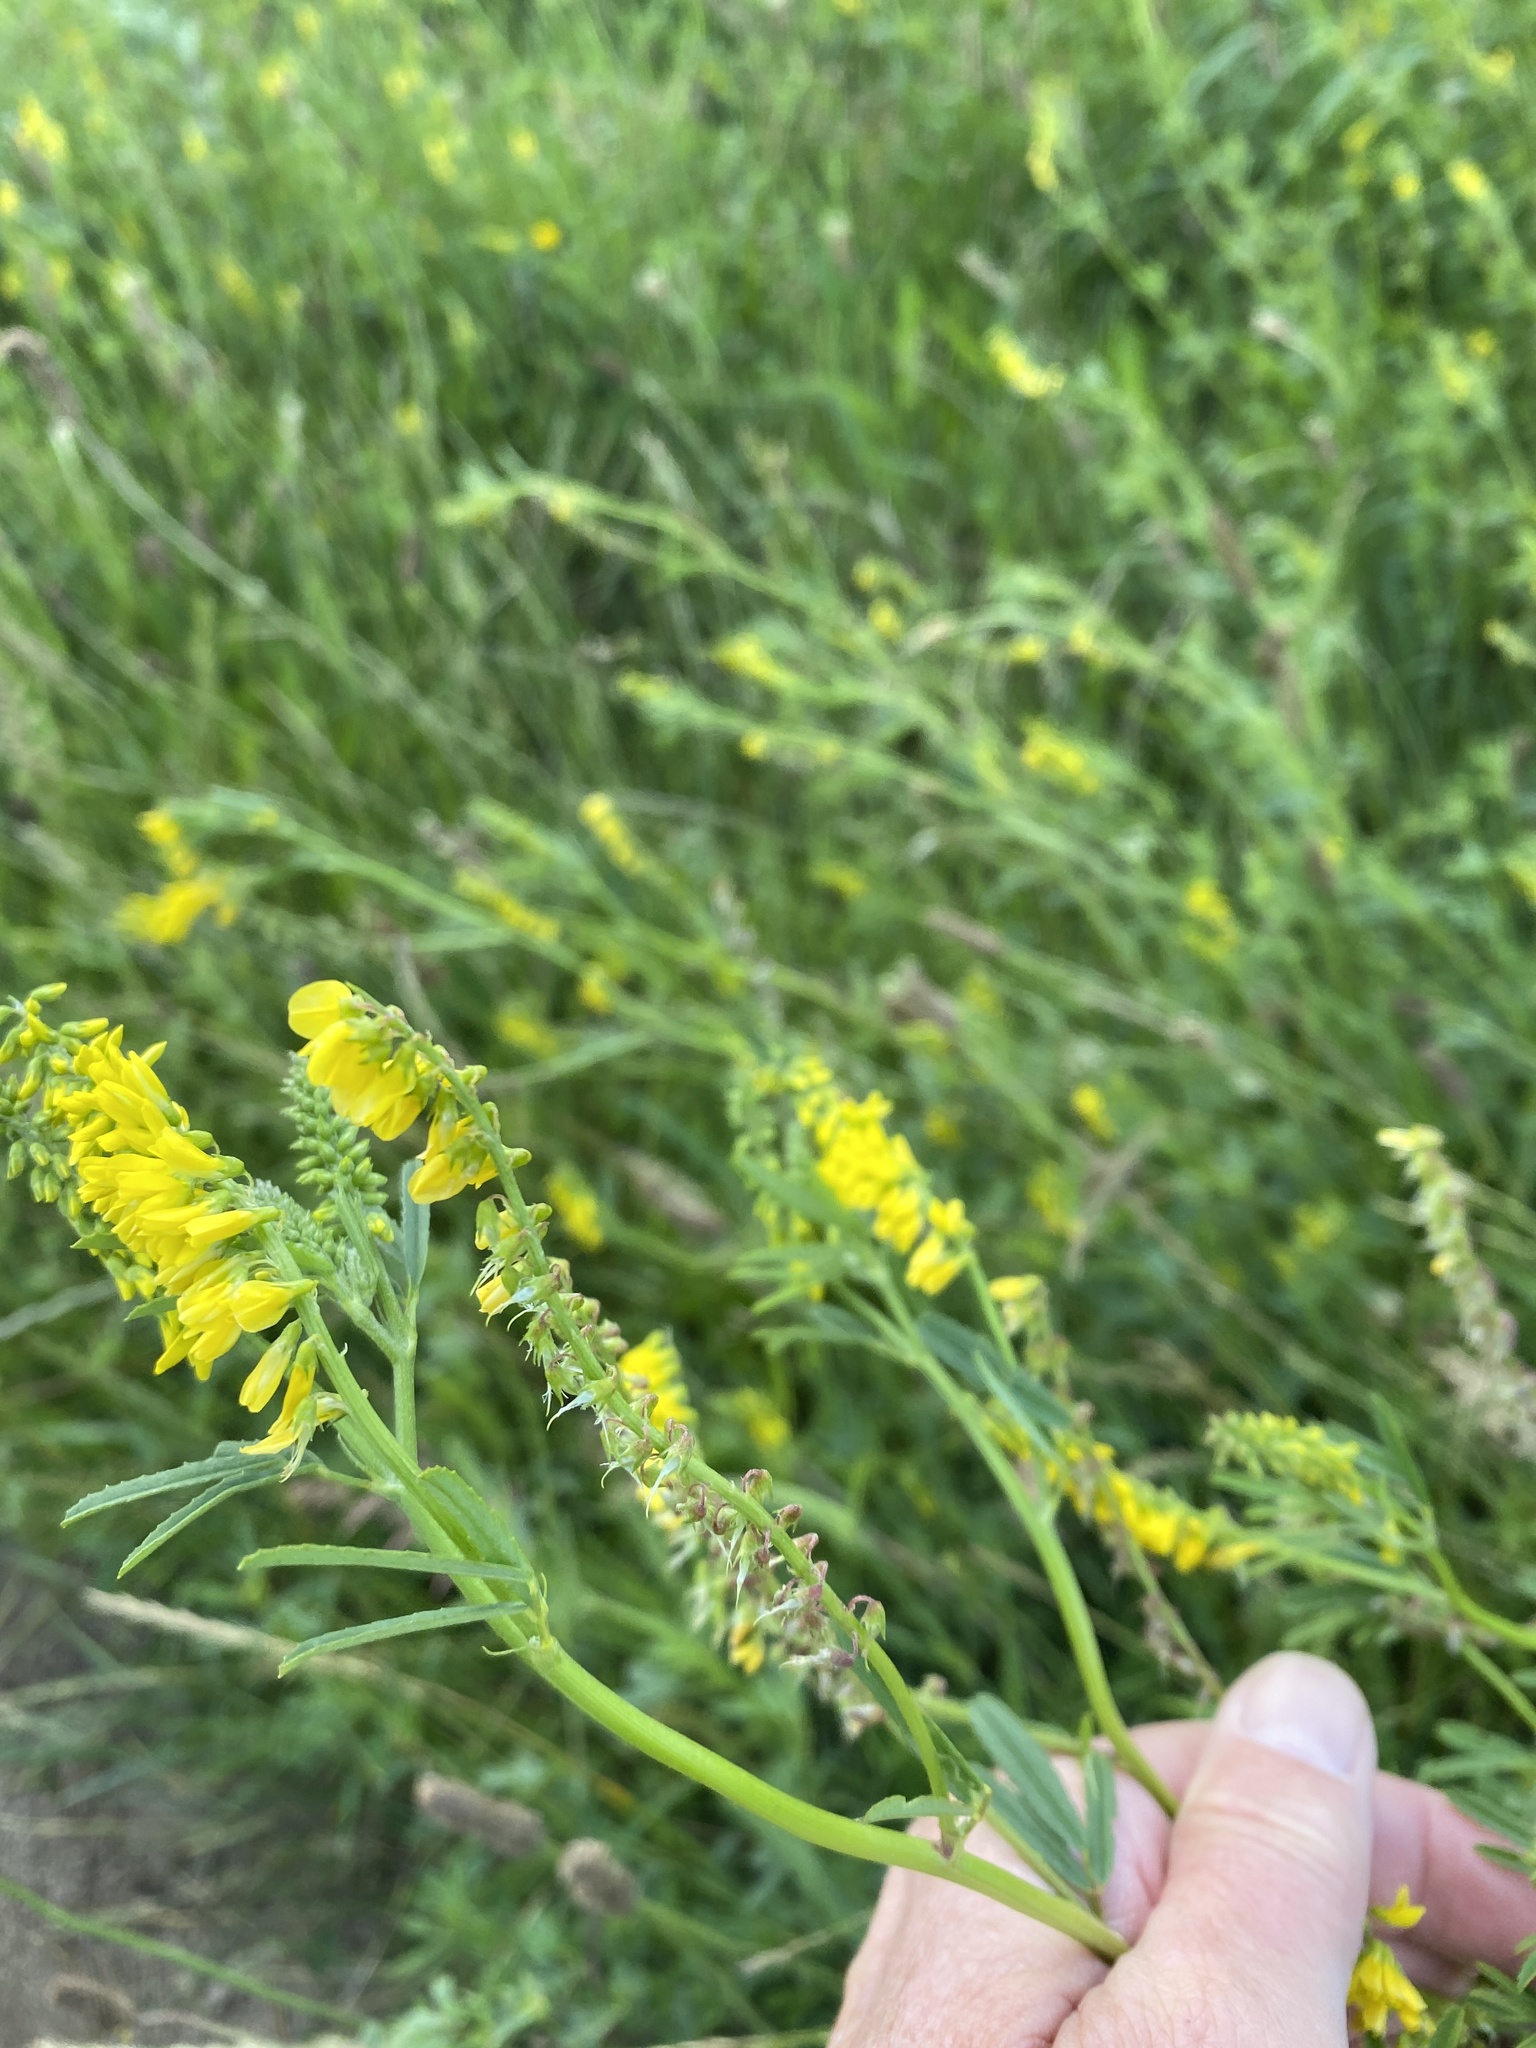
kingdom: Plantae
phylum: Tracheophyta
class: Magnoliopsida
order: Fabales
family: Fabaceae
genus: Melilotus
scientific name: Melilotus officinalis
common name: Sweetclover
